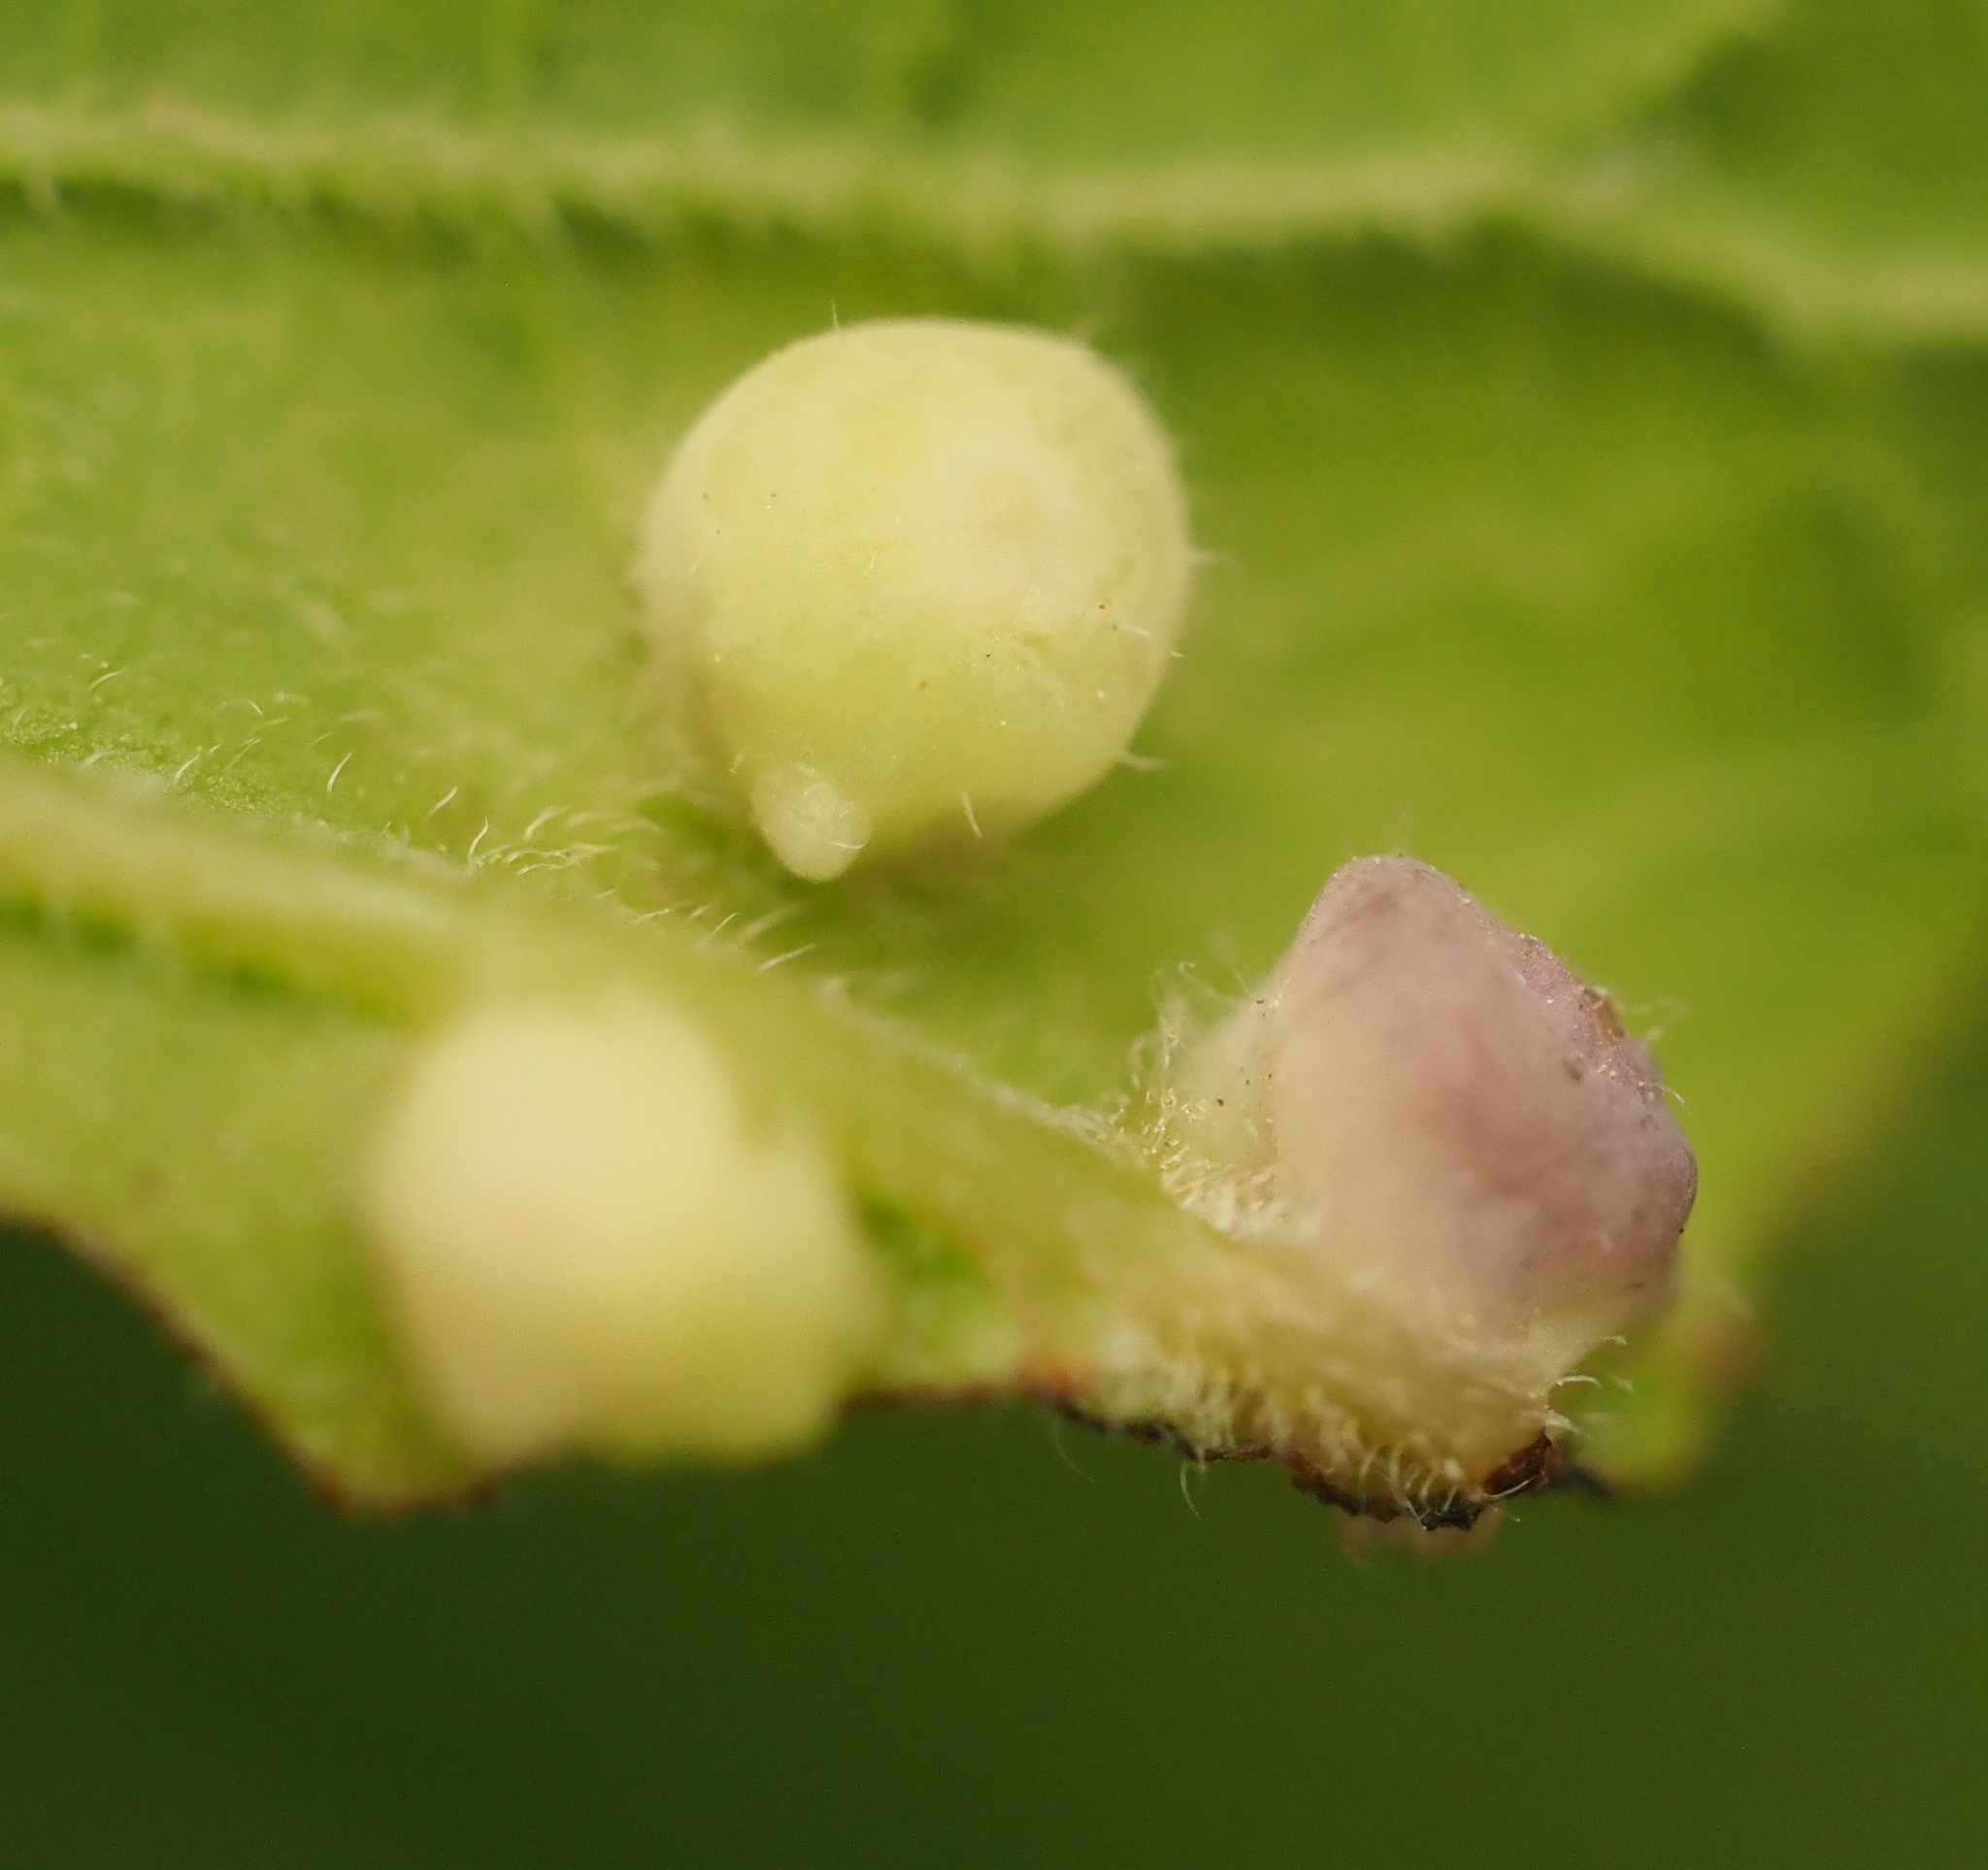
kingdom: Animalia
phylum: Arthropoda
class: Insecta
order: Hemiptera
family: Aphalaridae
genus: Pachypsylla
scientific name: Pachypsylla celtidismamma
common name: Hackberry nipplegall psyllid
